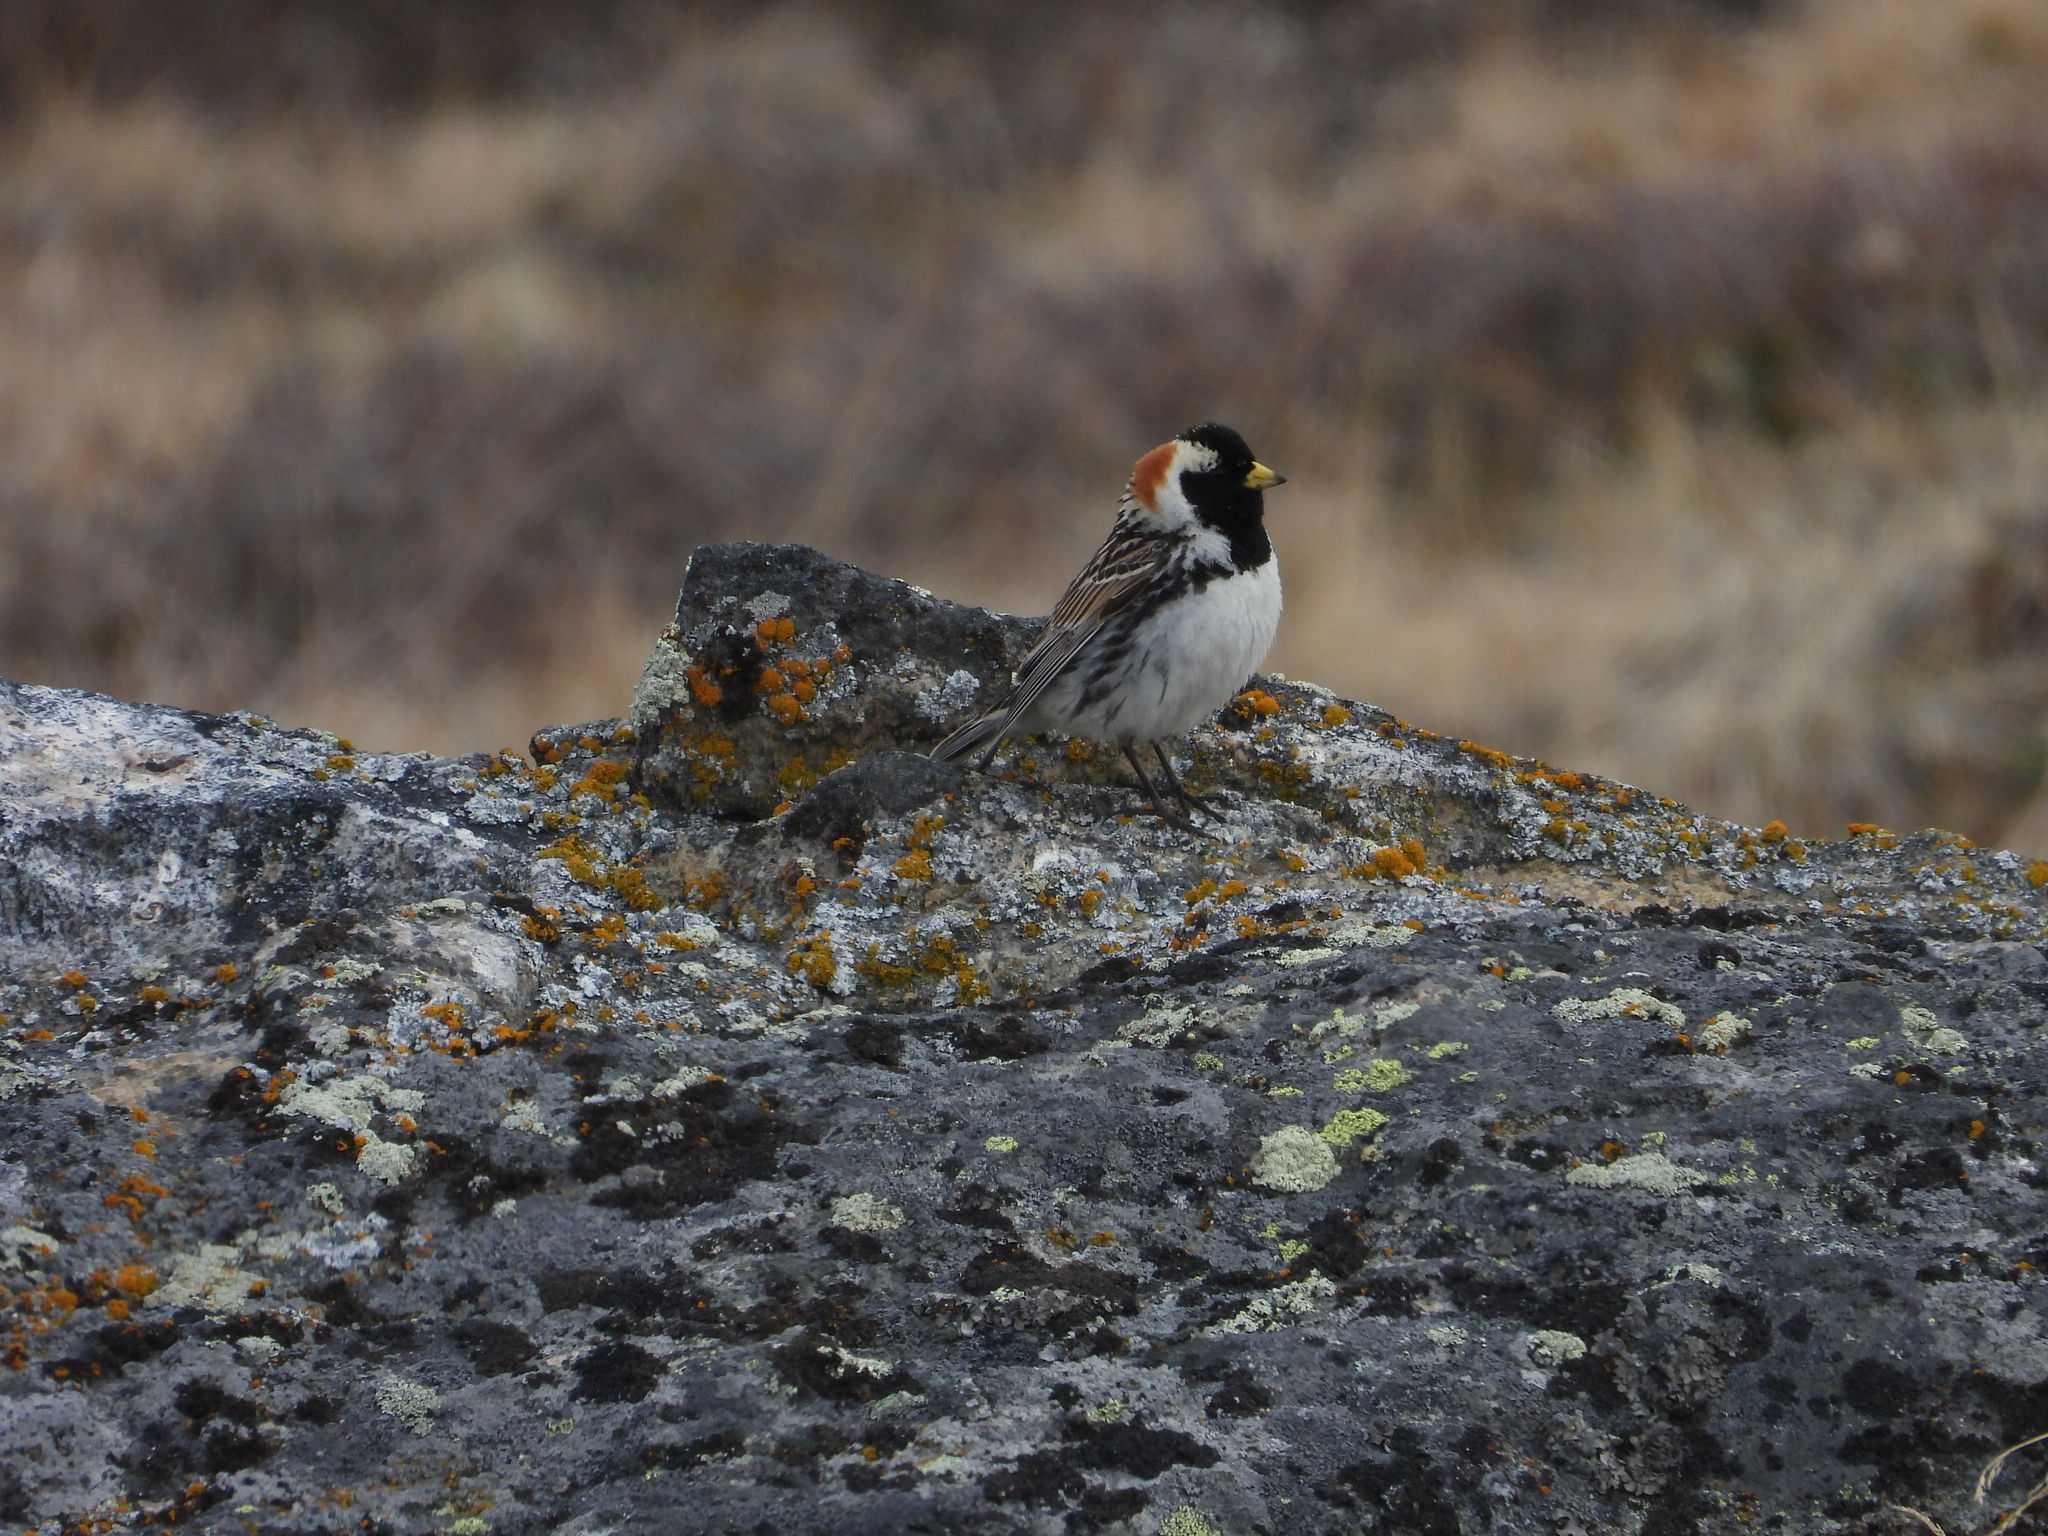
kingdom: Animalia
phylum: Chordata
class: Aves
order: Passeriformes
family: Calcariidae
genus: Calcarius
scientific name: Calcarius lapponicus
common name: Lapland longspur
